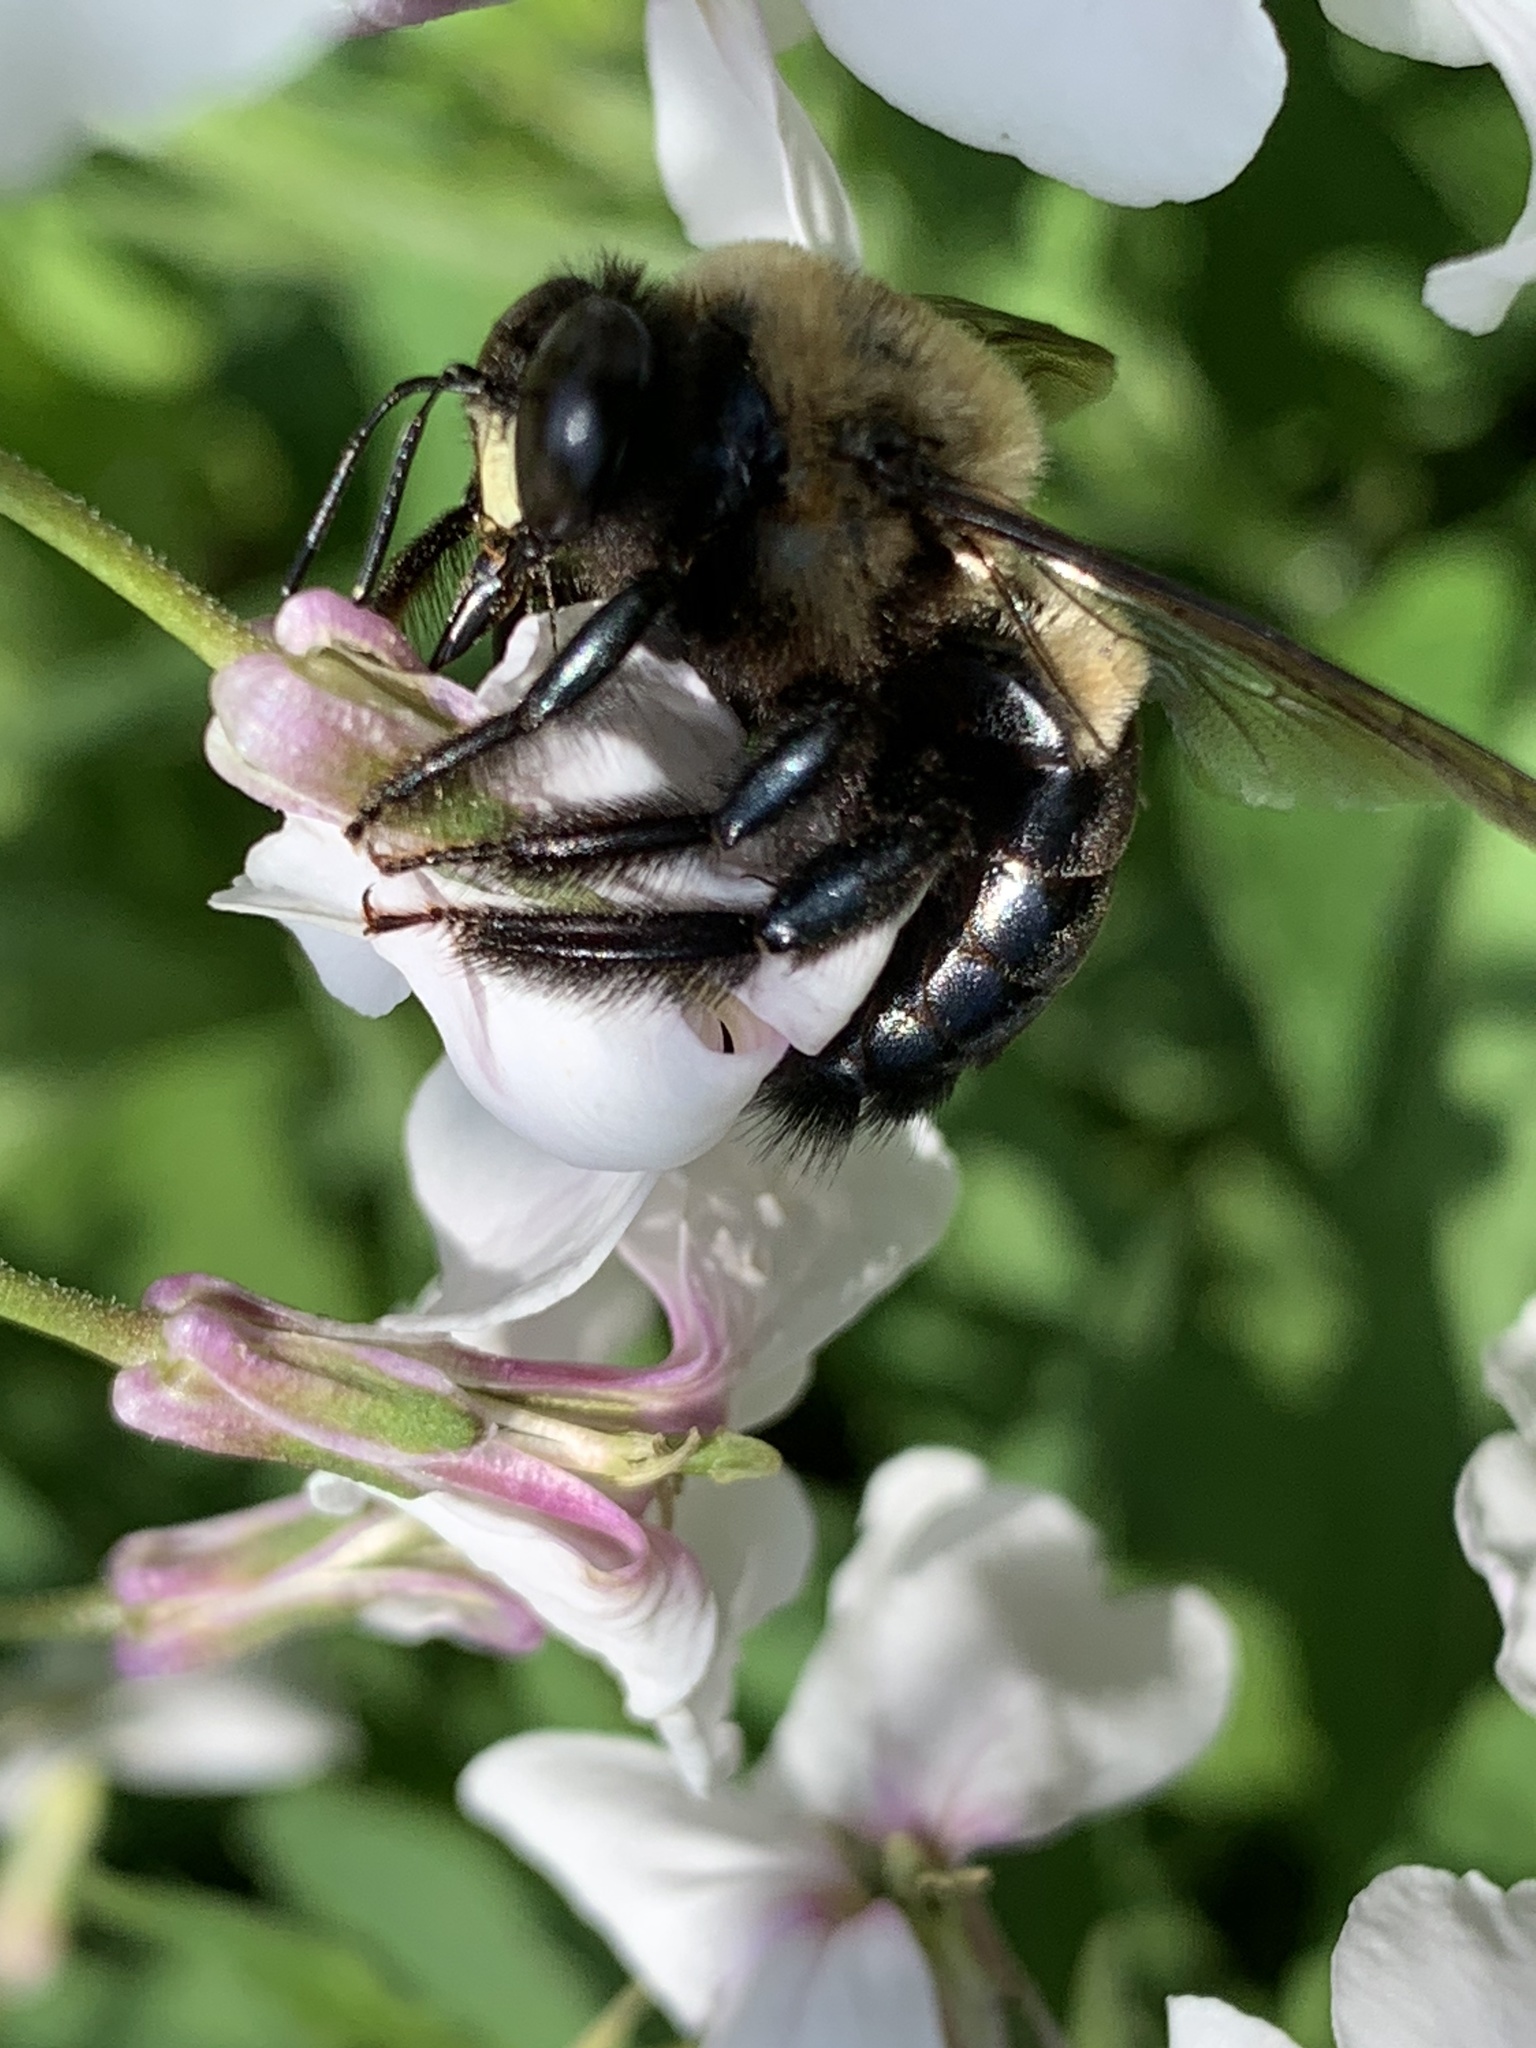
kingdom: Animalia
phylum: Arthropoda
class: Insecta
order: Hymenoptera
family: Apidae
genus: Xylocopa
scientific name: Xylocopa virginica
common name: Carpenter bee
